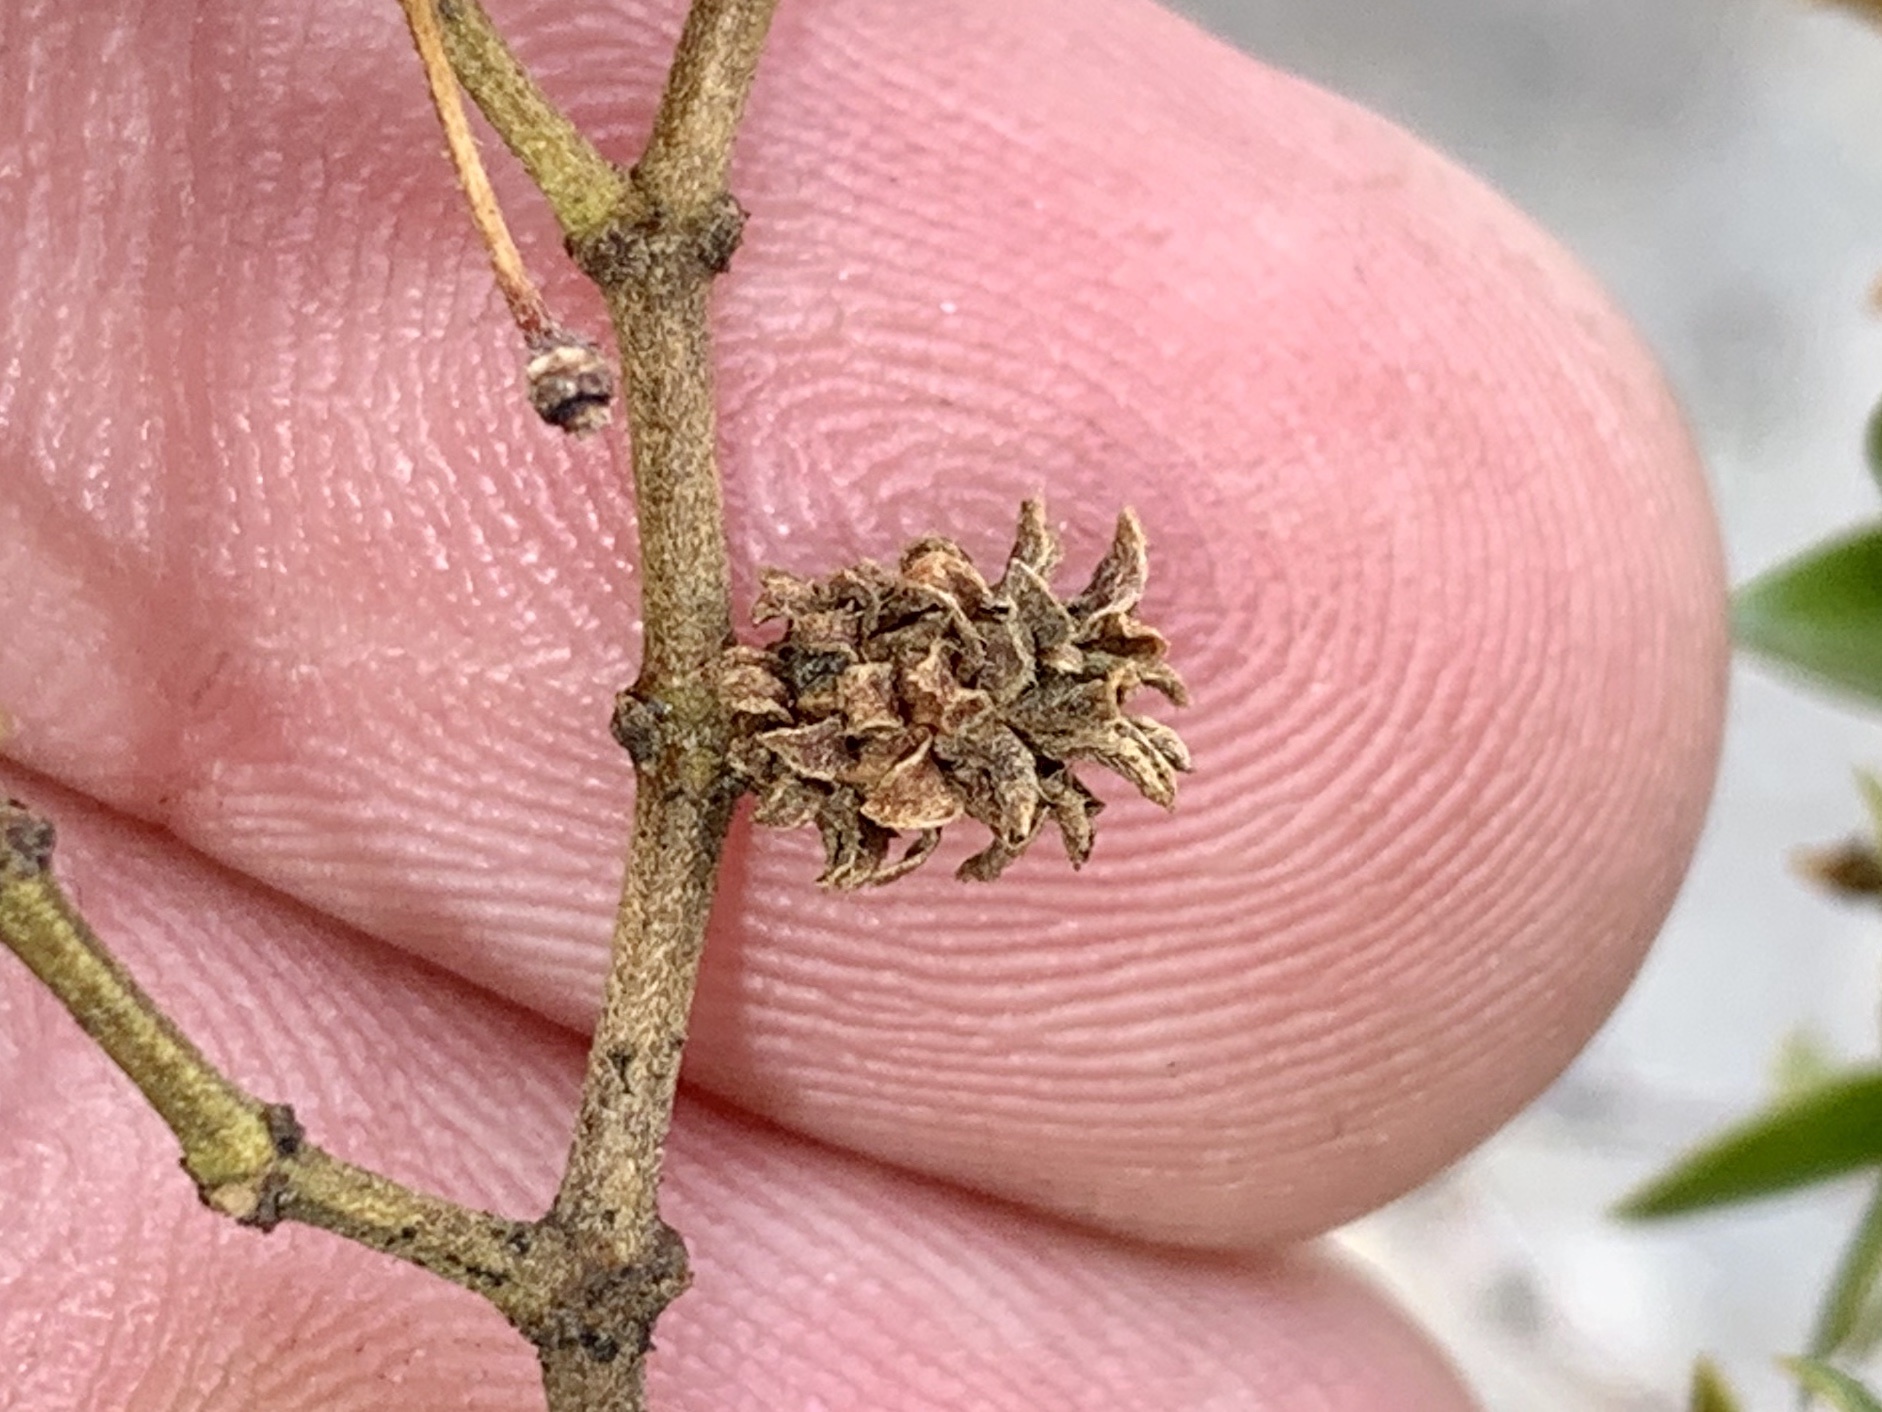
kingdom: Animalia
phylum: Arthropoda
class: Insecta
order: Diptera
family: Cecidomyiidae
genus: Asphondylia
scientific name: Asphondylia rosetta
